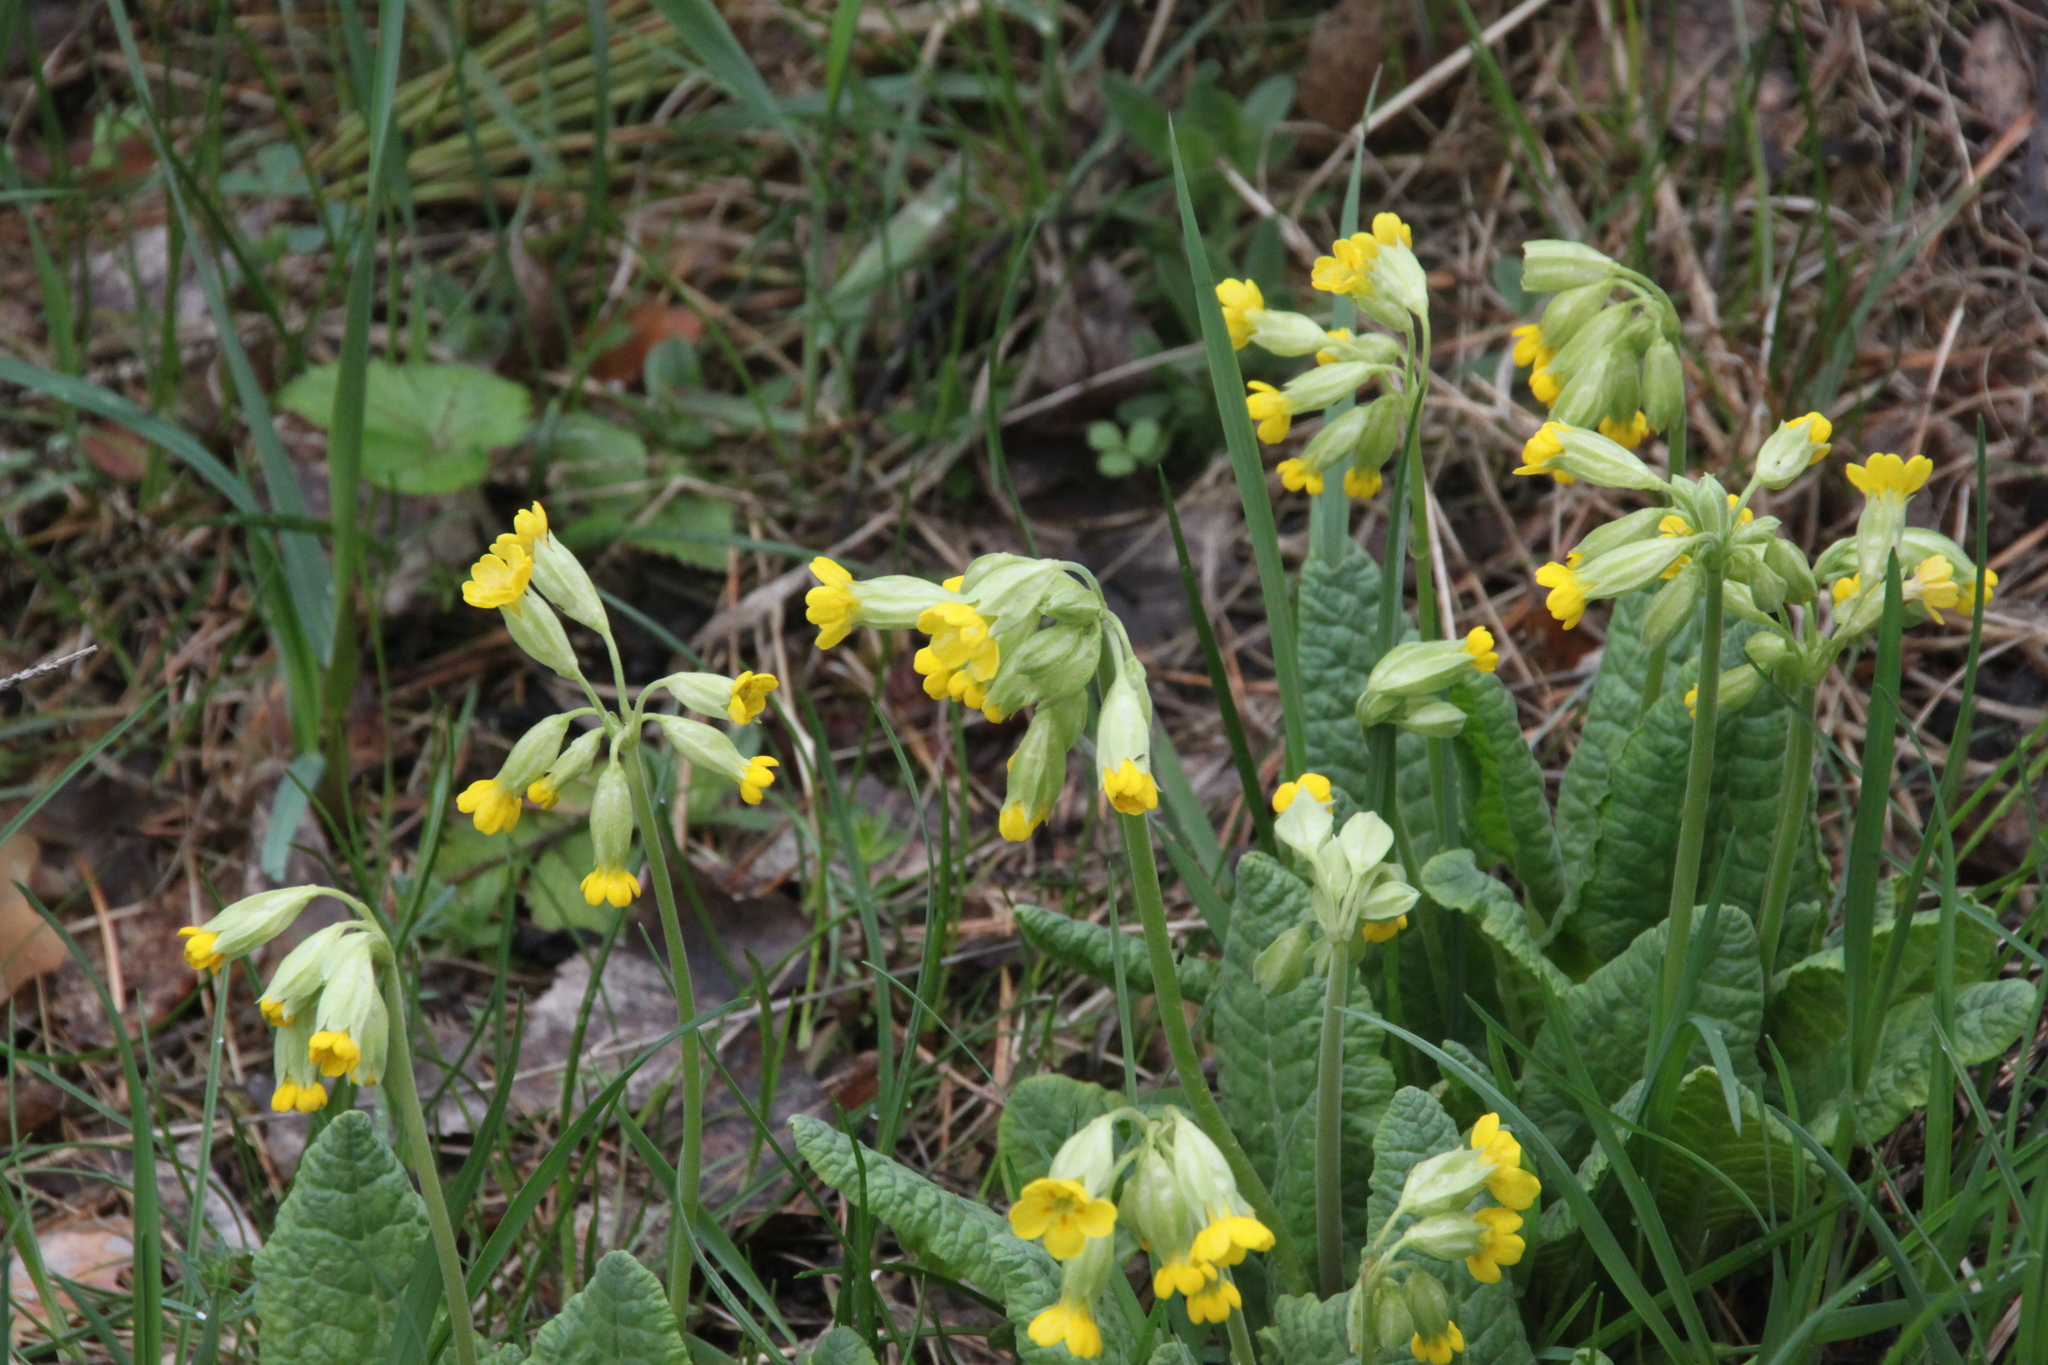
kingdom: Plantae
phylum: Tracheophyta
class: Magnoliopsida
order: Ericales
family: Primulaceae
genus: Primula
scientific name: Primula veris
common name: Cowslip
